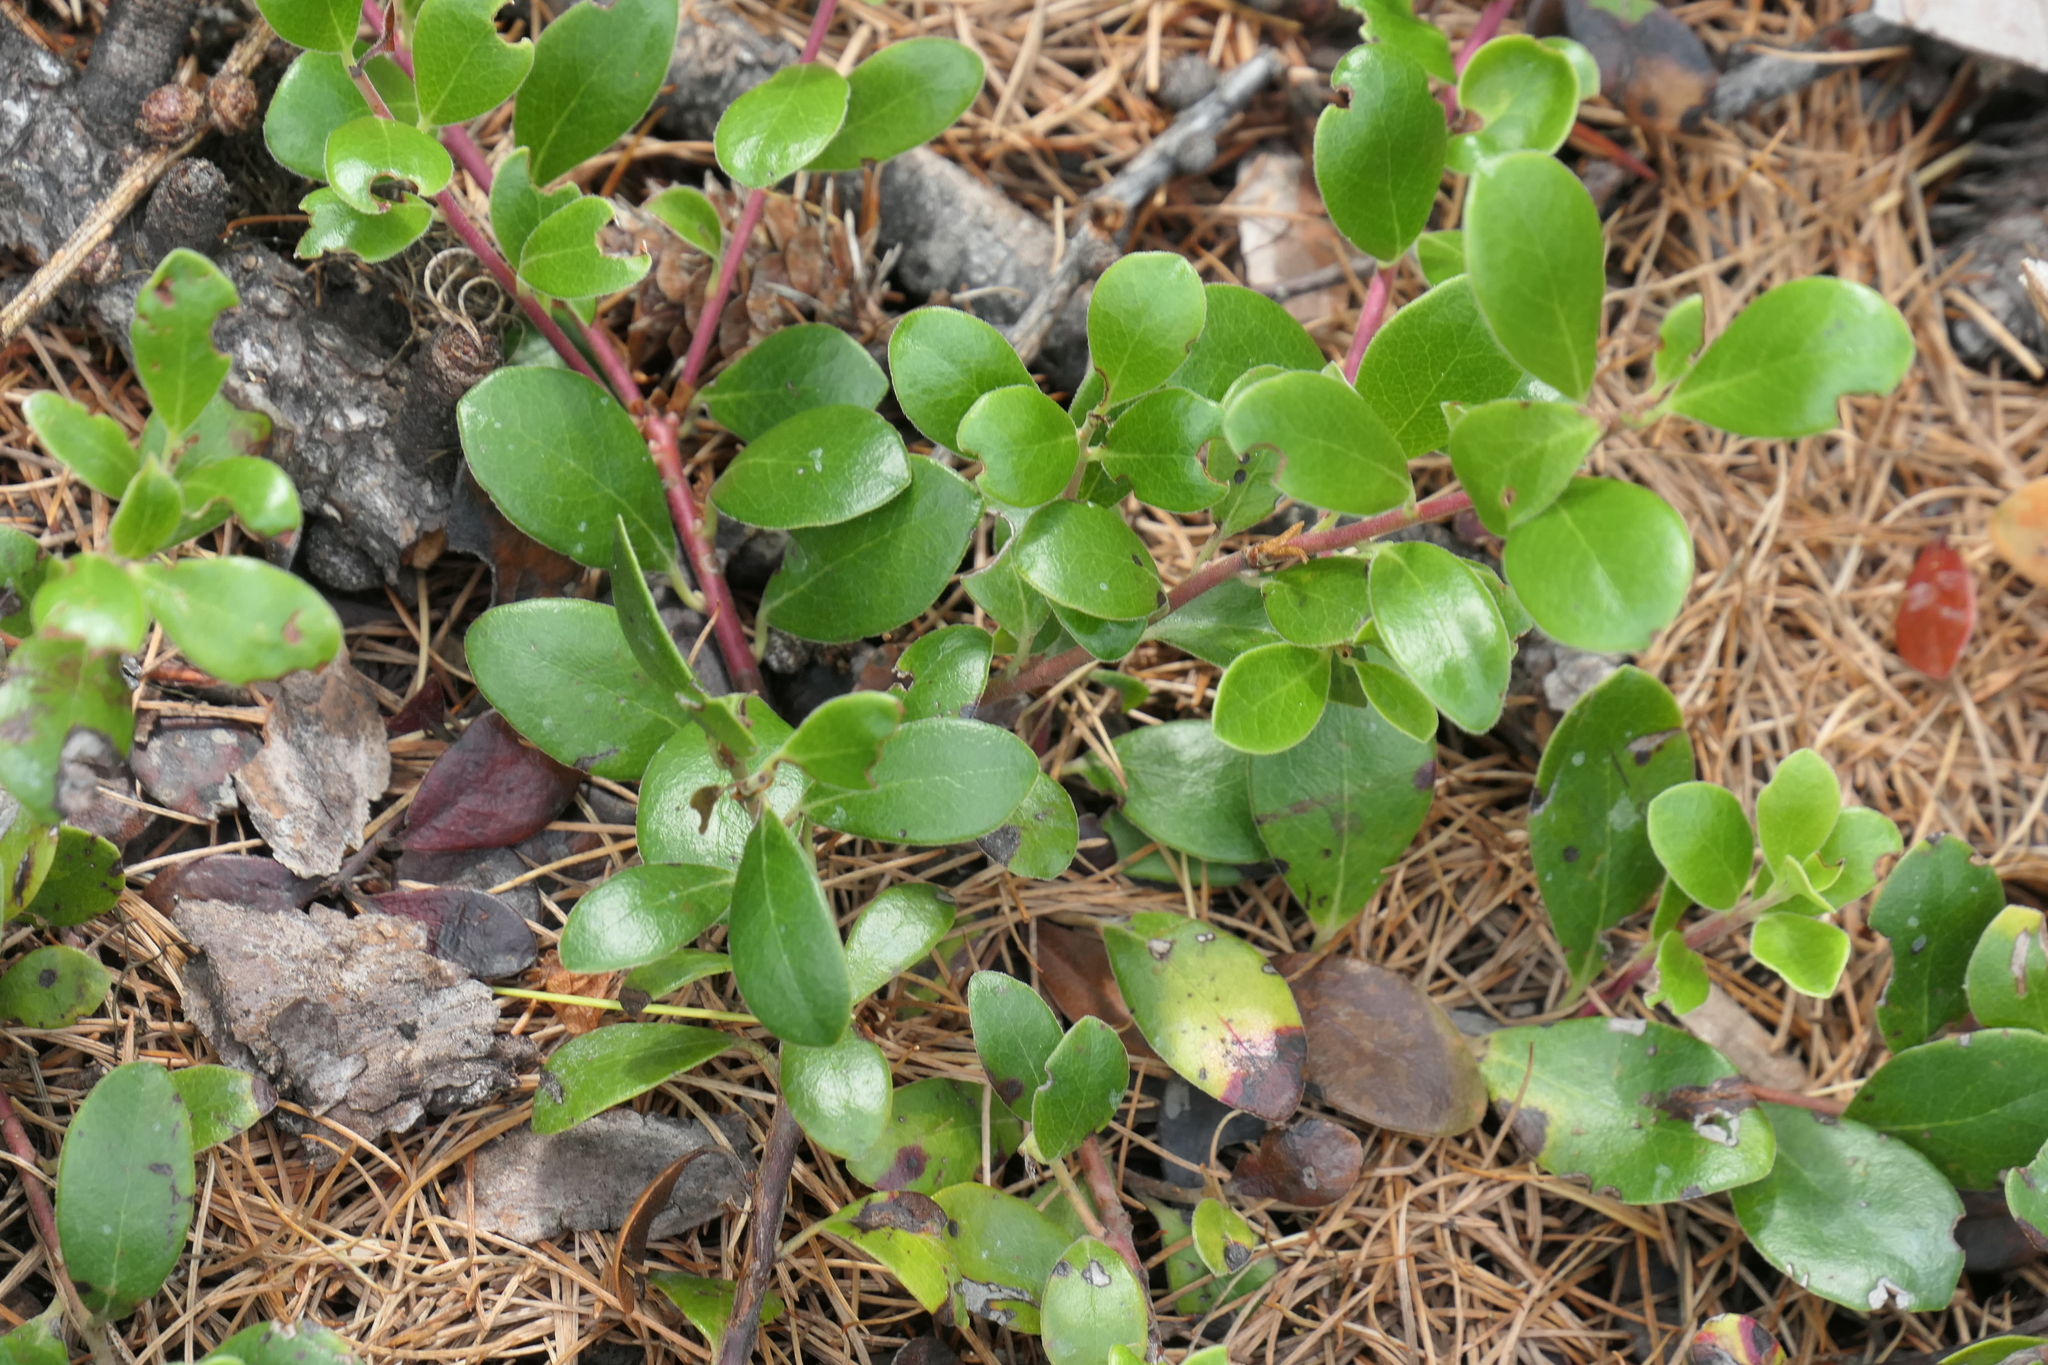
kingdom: Plantae
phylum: Tracheophyta
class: Magnoliopsida
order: Ericales
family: Ericaceae
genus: Arctostaphylos
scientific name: Arctostaphylos uva-ursi
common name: Bearberry
